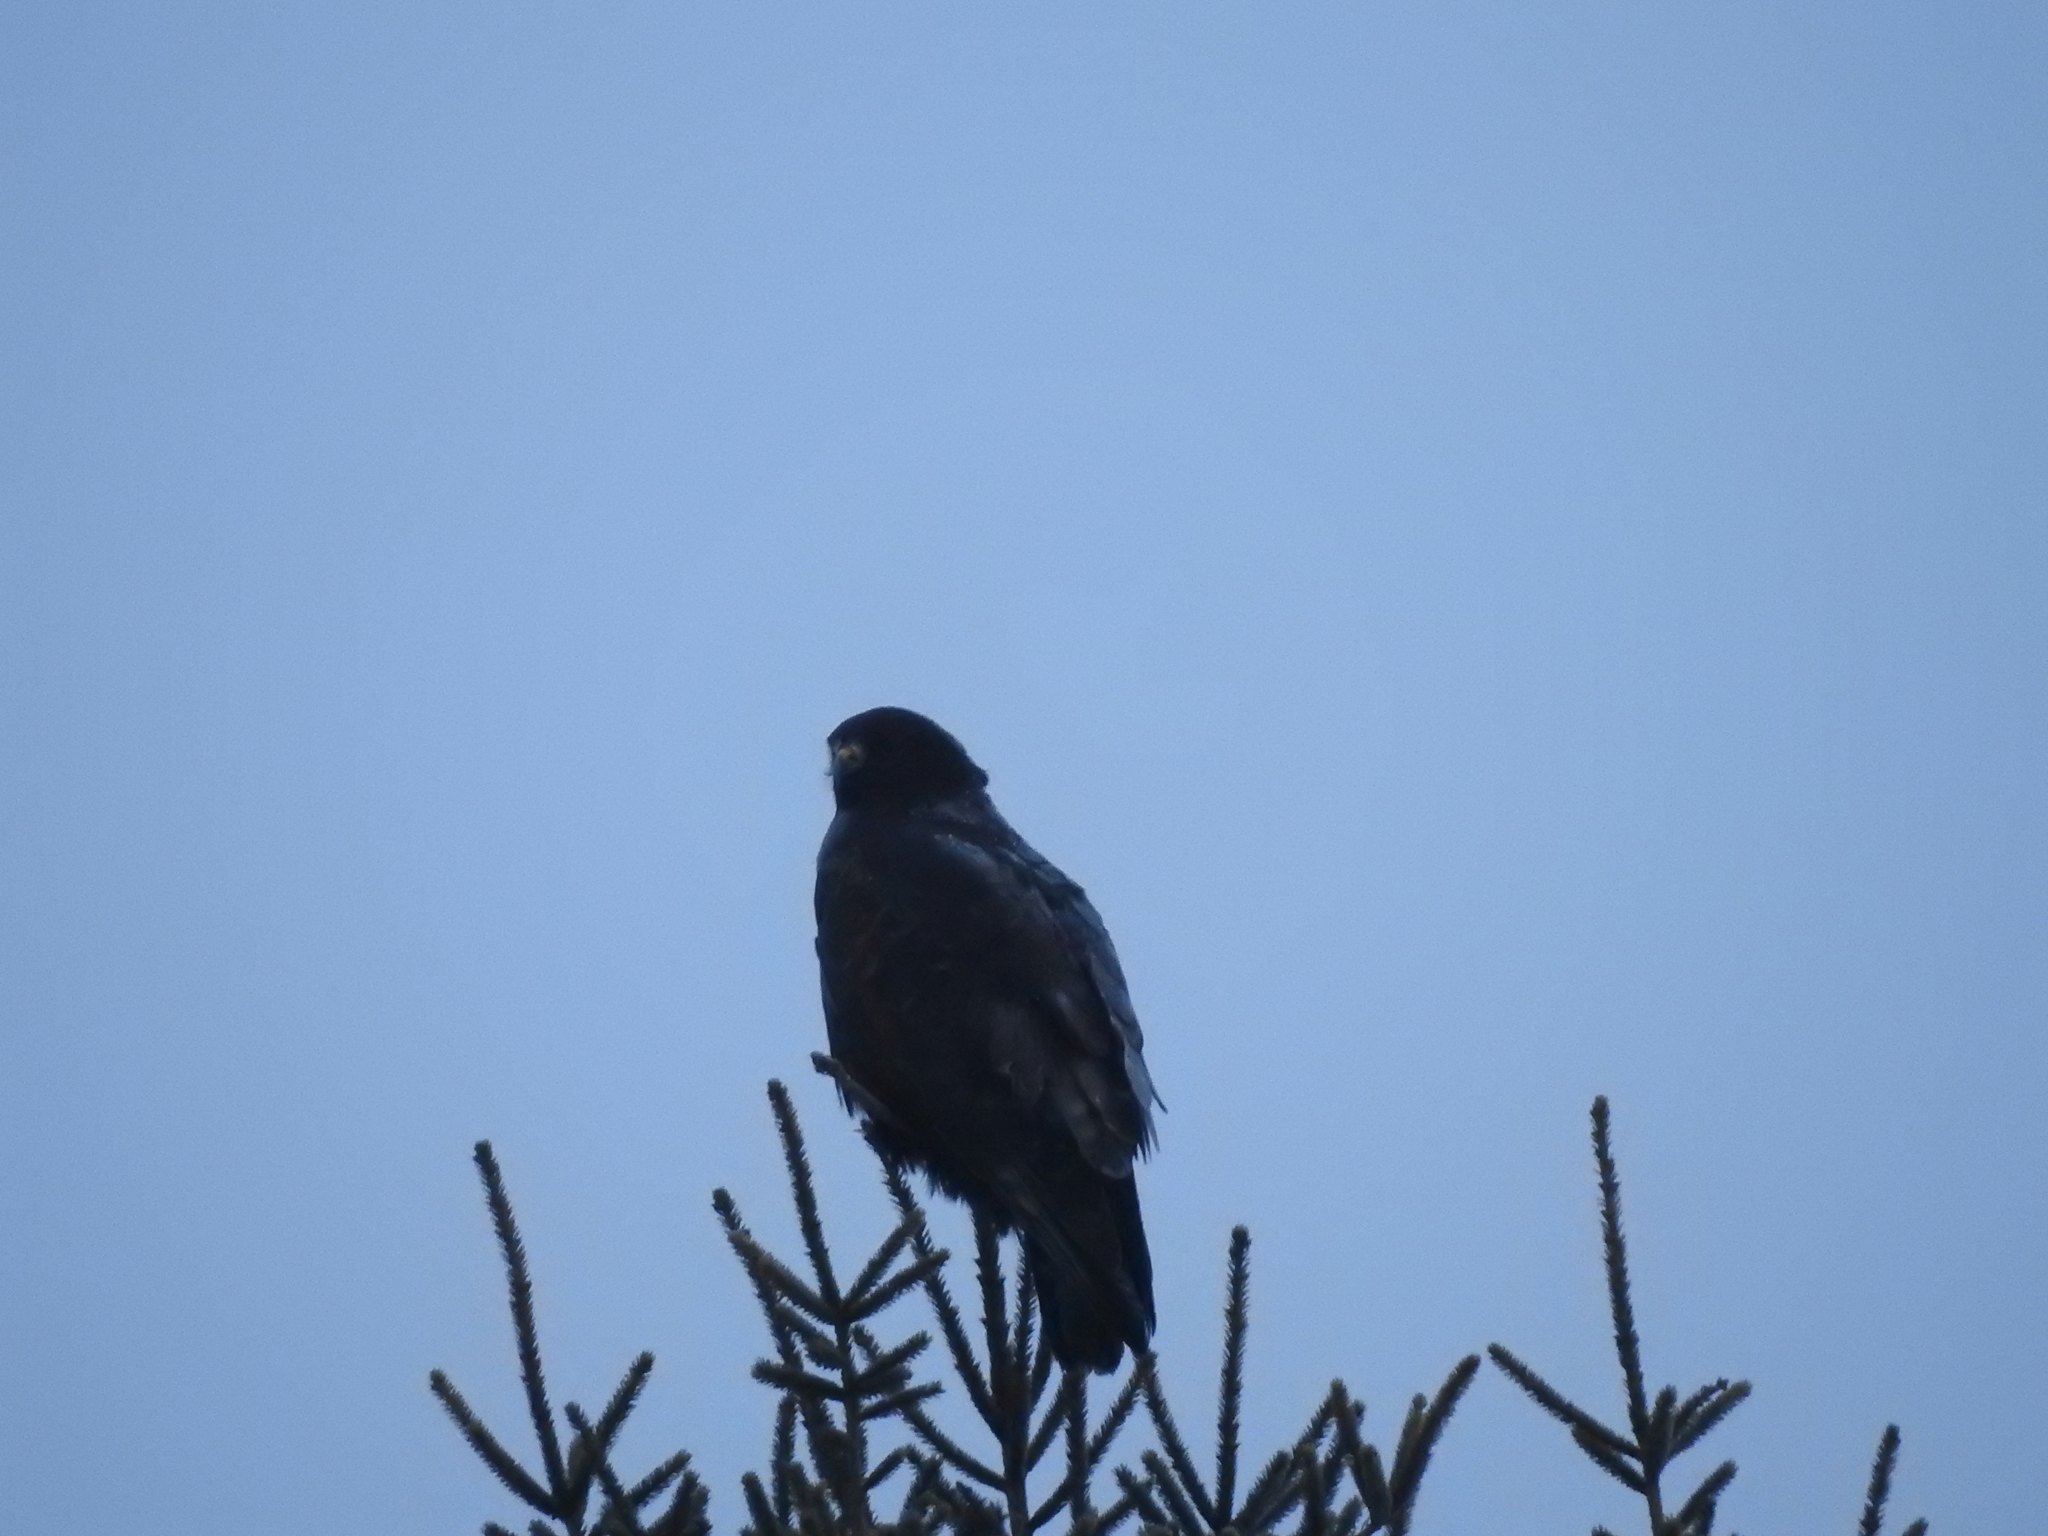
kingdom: Animalia
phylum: Chordata
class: Aves
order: Accipitriformes
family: Accipitridae
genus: Buteo
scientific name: Buteo lagopus
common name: Rough-legged buzzard
